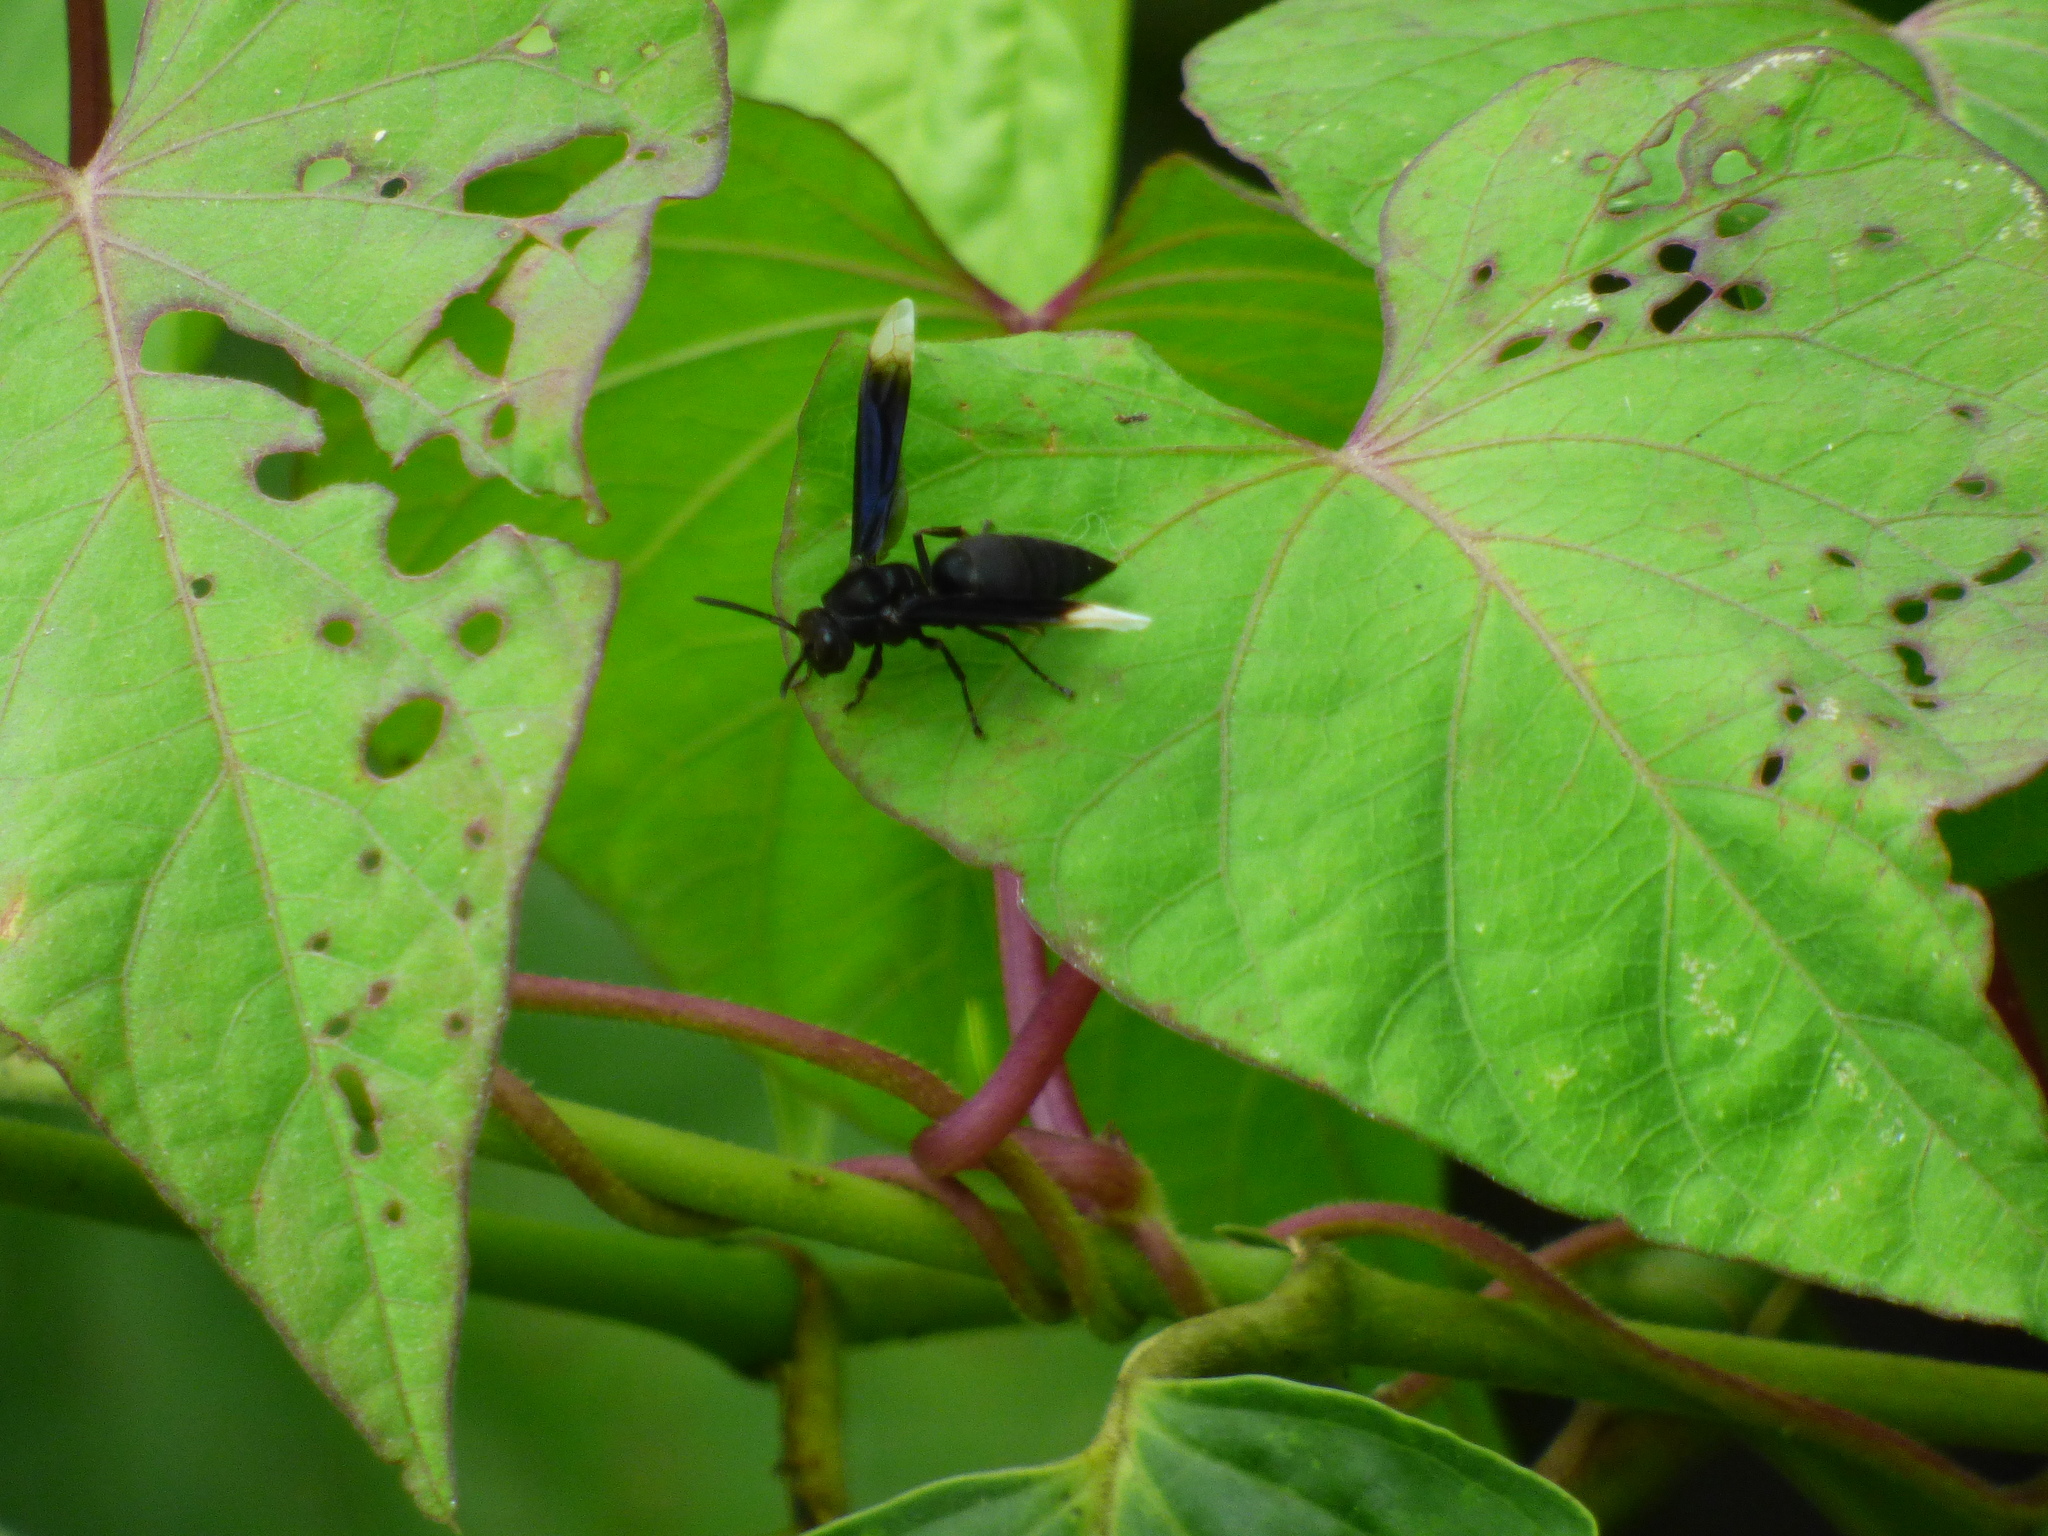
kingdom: Animalia
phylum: Arthropoda
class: Insecta
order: Hymenoptera
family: Vespidae
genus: Parachartergus
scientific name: Parachartergus apicalis
